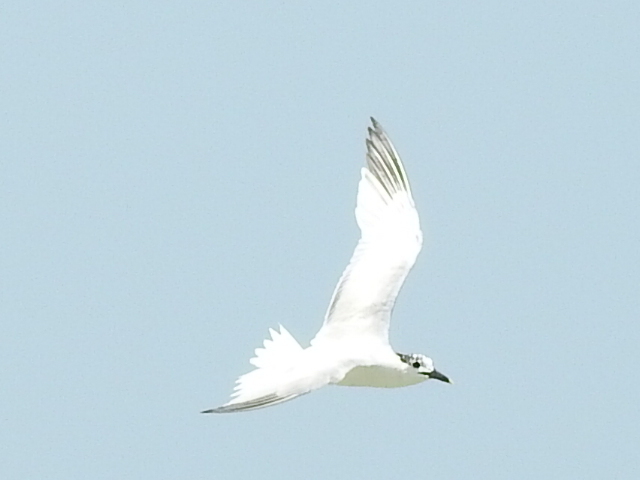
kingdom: Animalia
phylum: Chordata
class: Aves
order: Charadriiformes
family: Laridae
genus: Thalasseus
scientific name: Thalasseus sandvicensis
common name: Sandwich tern
